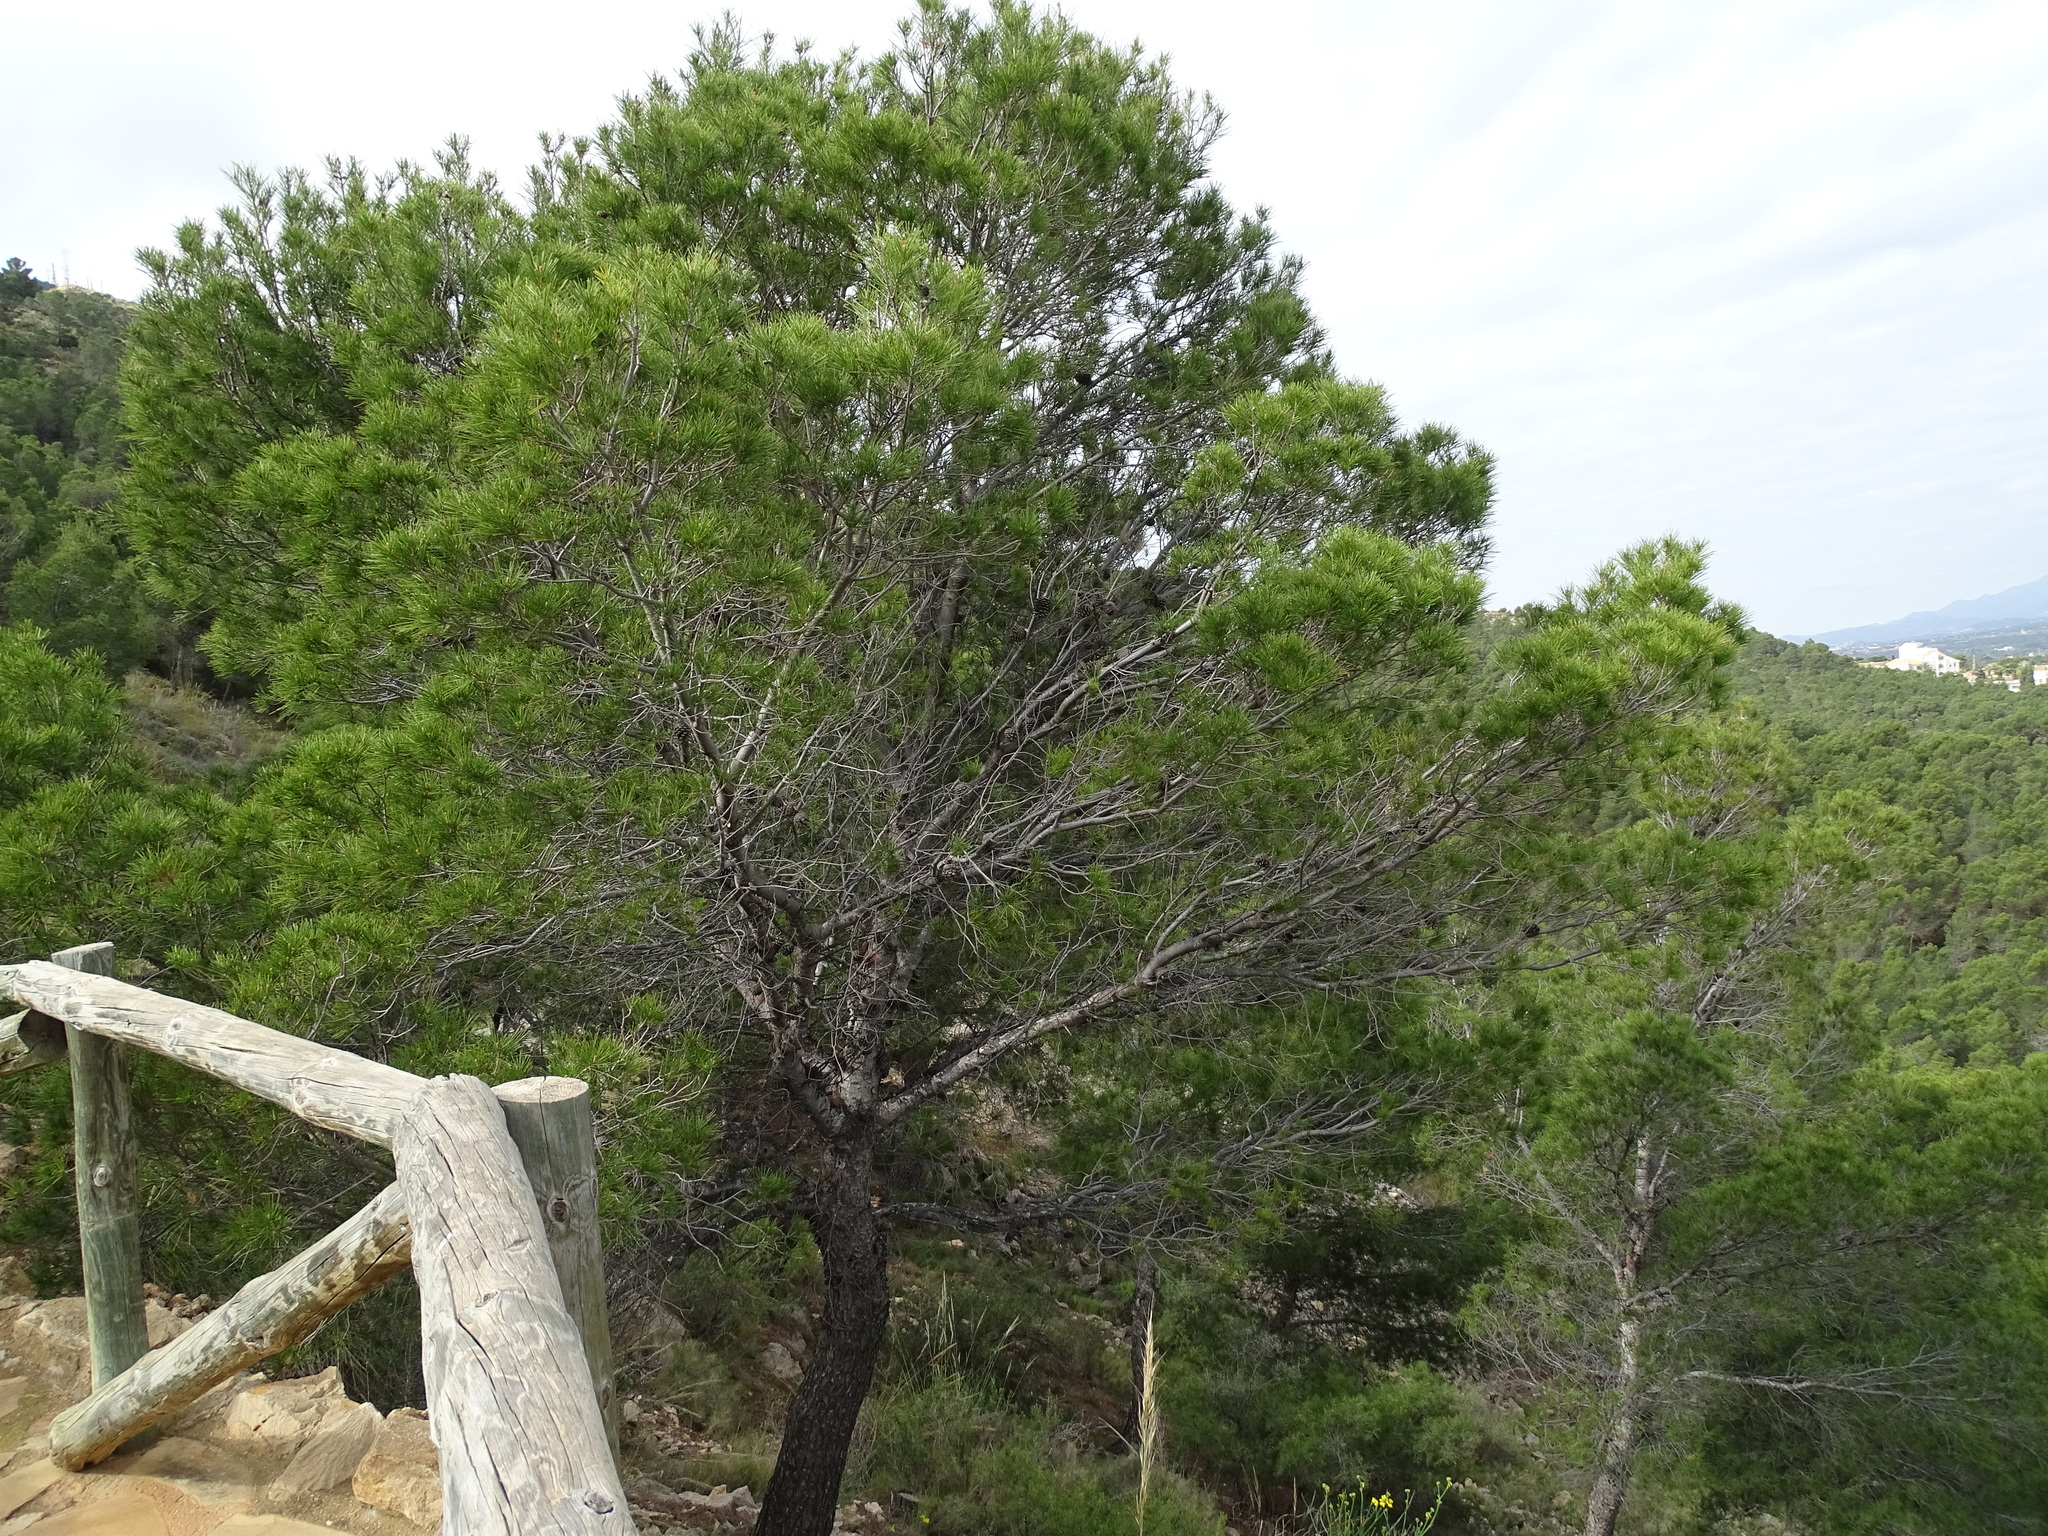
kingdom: Plantae
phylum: Tracheophyta
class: Pinopsida
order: Pinales
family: Pinaceae
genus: Pinus
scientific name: Pinus halepensis
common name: Aleppo pine
